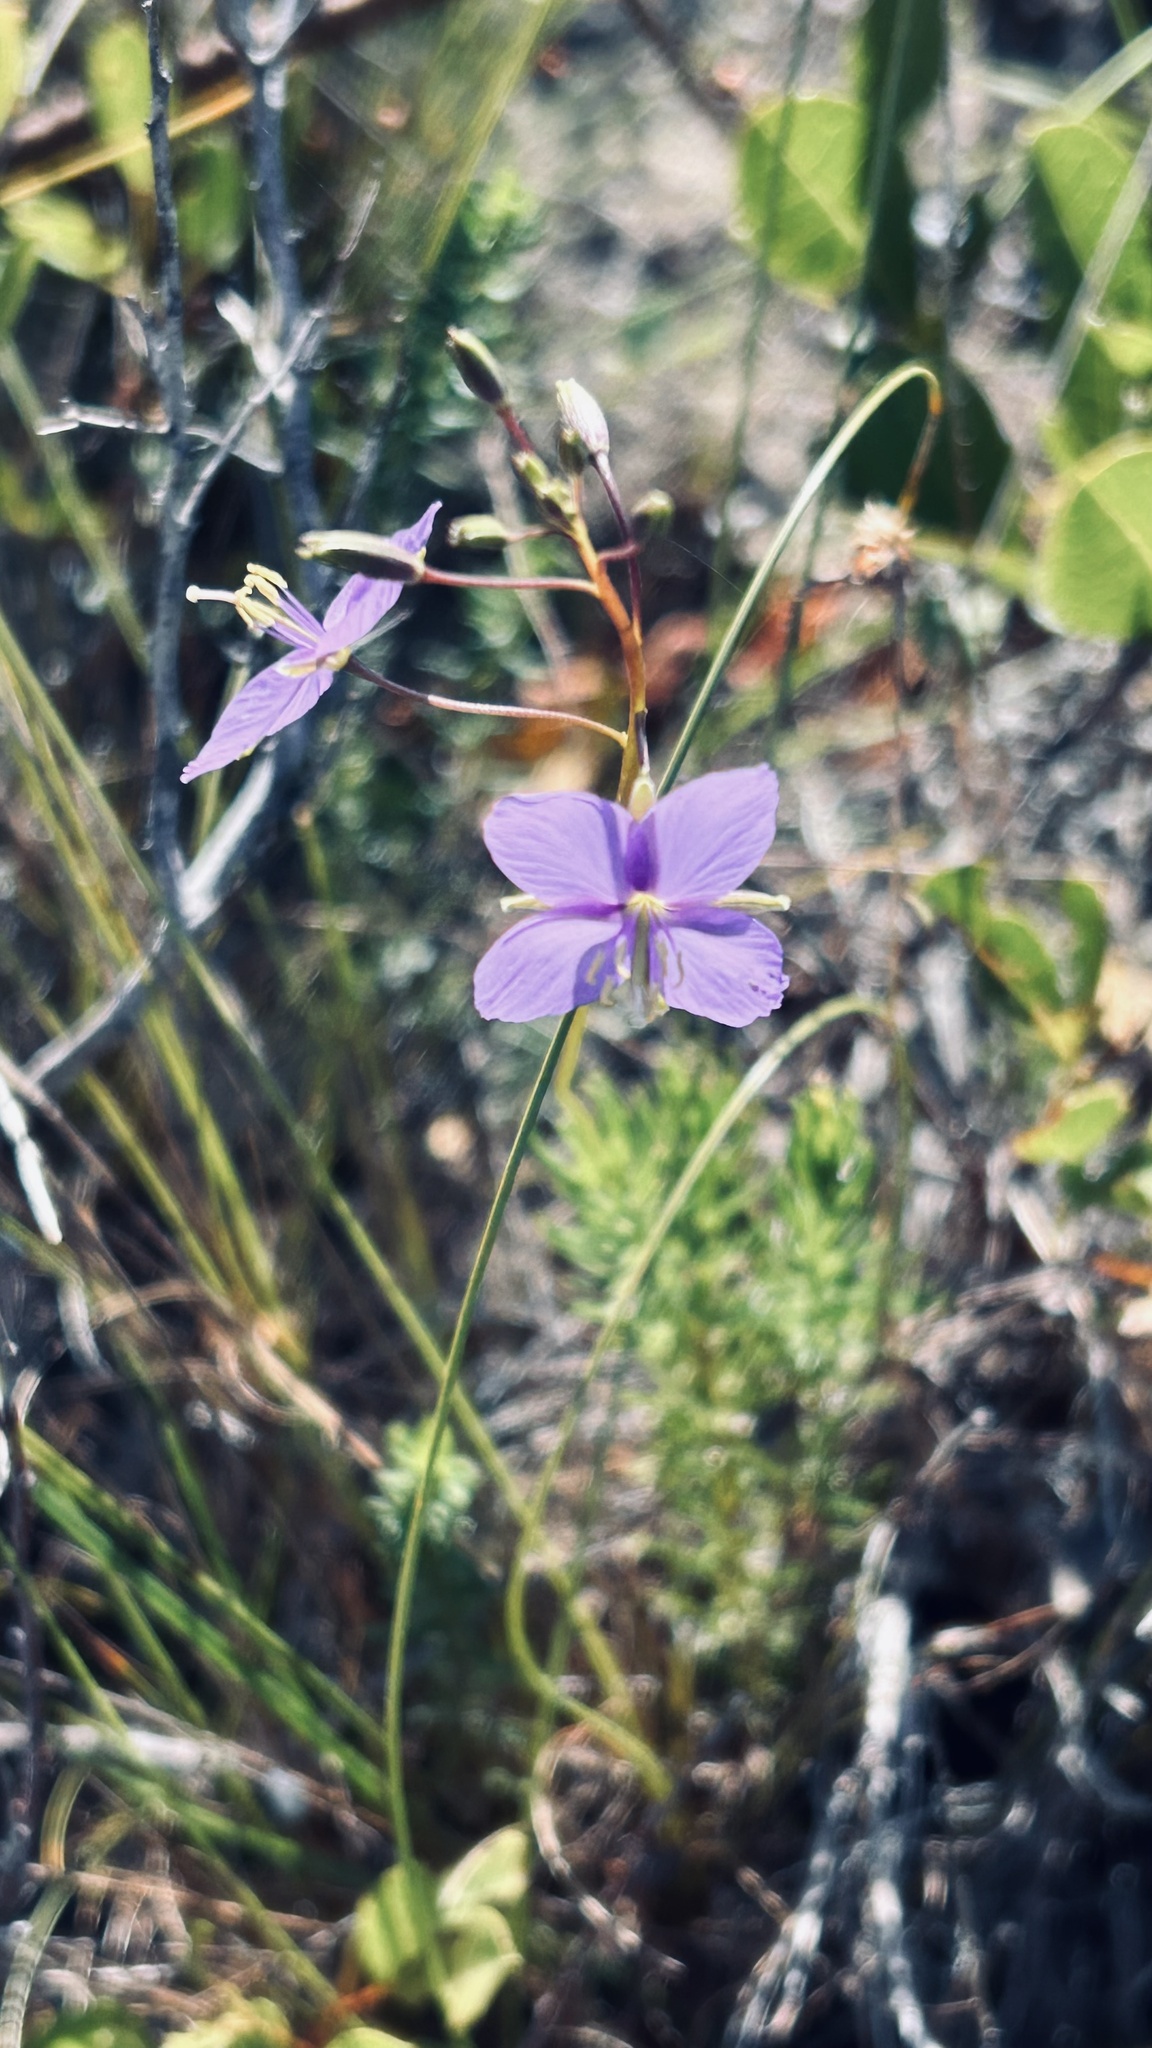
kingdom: Plantae
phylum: Tracheophyta
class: Magnoliopsida
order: Brassicales
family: Brassicaceae
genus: Heliophila
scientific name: Heliophila subulata
